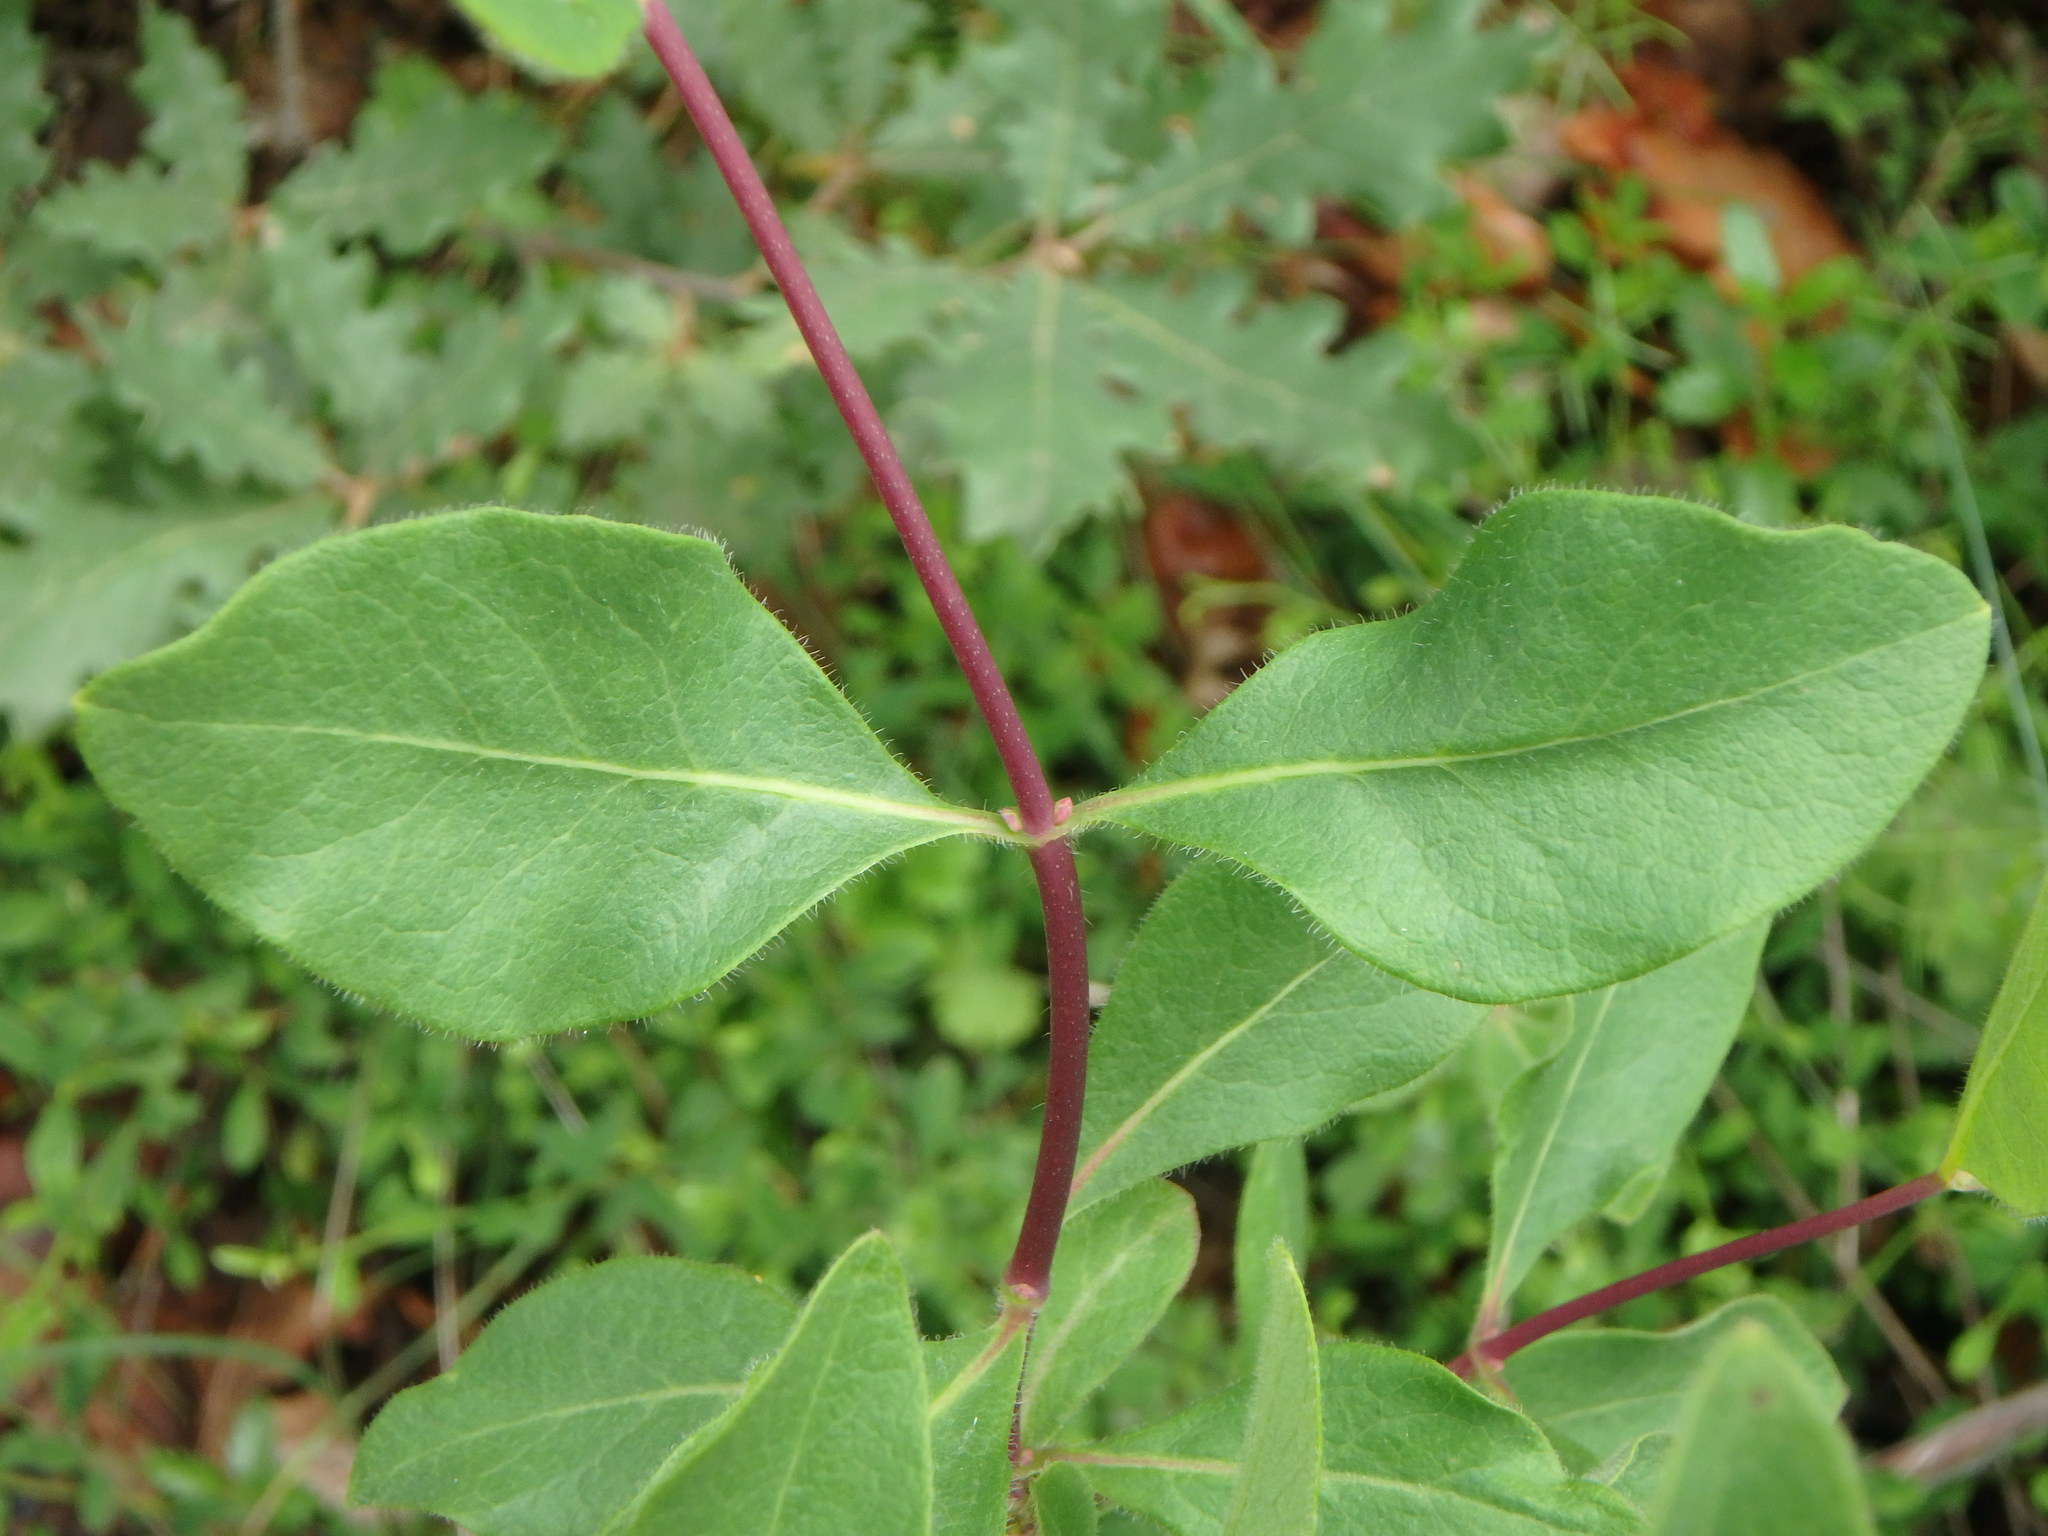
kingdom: Plantae
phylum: Tracheophyta
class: Magnoliopsida
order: Dipsacales
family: Caprifoliaceae
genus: Lonicera
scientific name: Lonicera etrusca
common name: Etruscan honeysuckle
